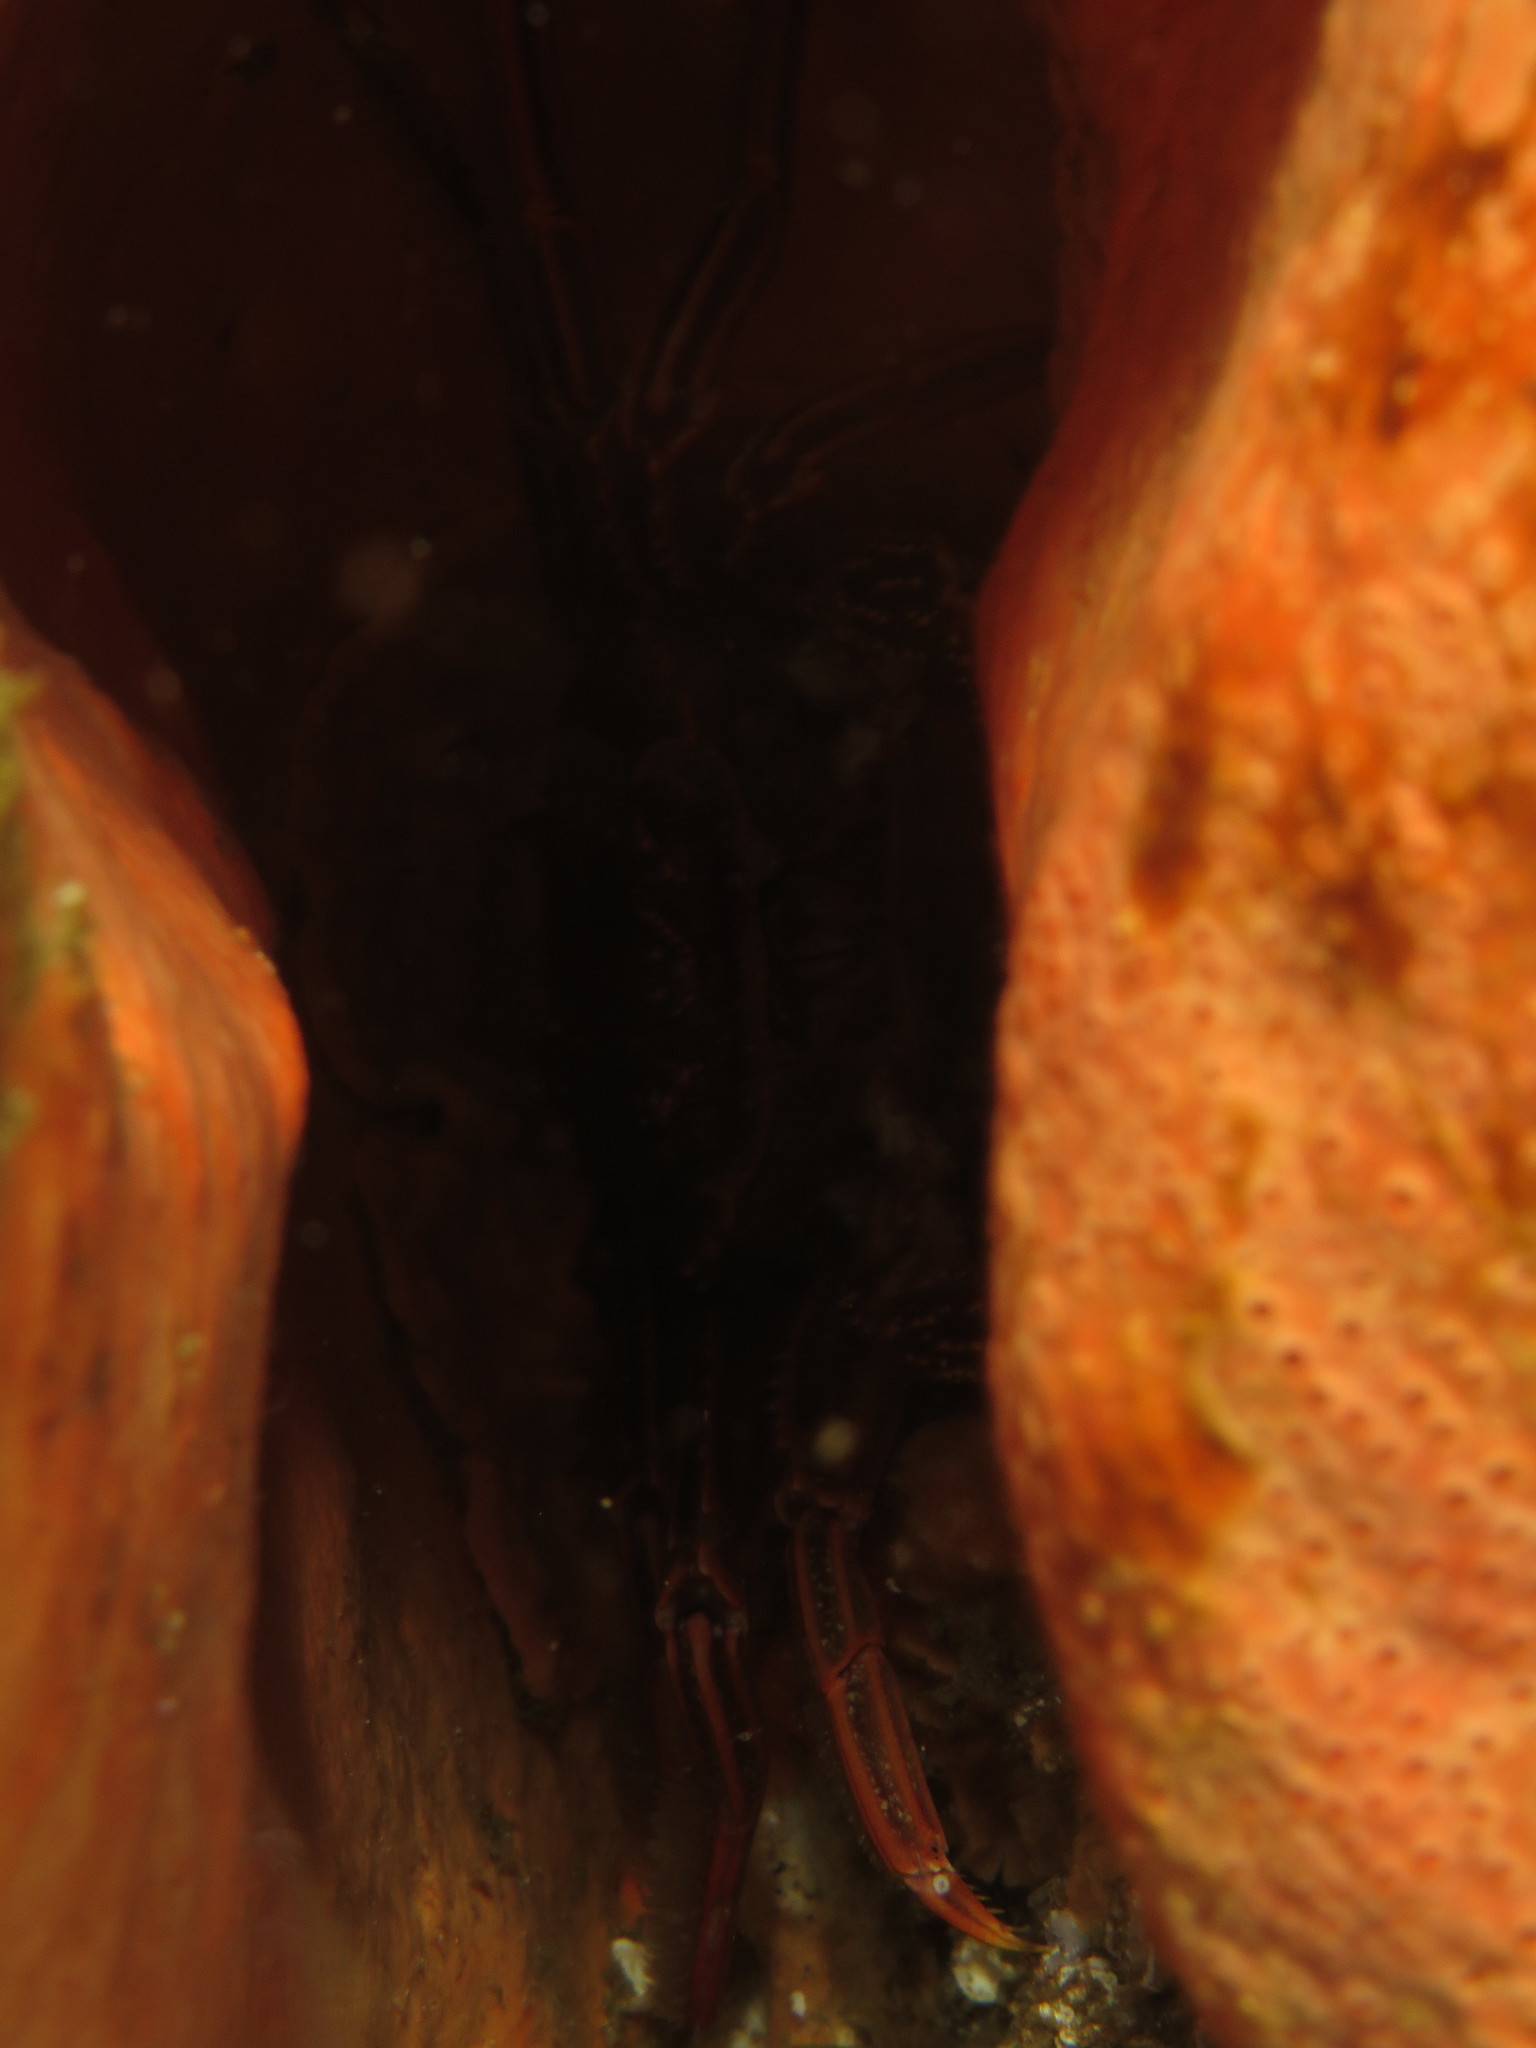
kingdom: Animalia
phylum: Arthropoda
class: Malacostraca
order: Decapoda
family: Plagusiidae
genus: Guinusia
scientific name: Guinusia chabrus
